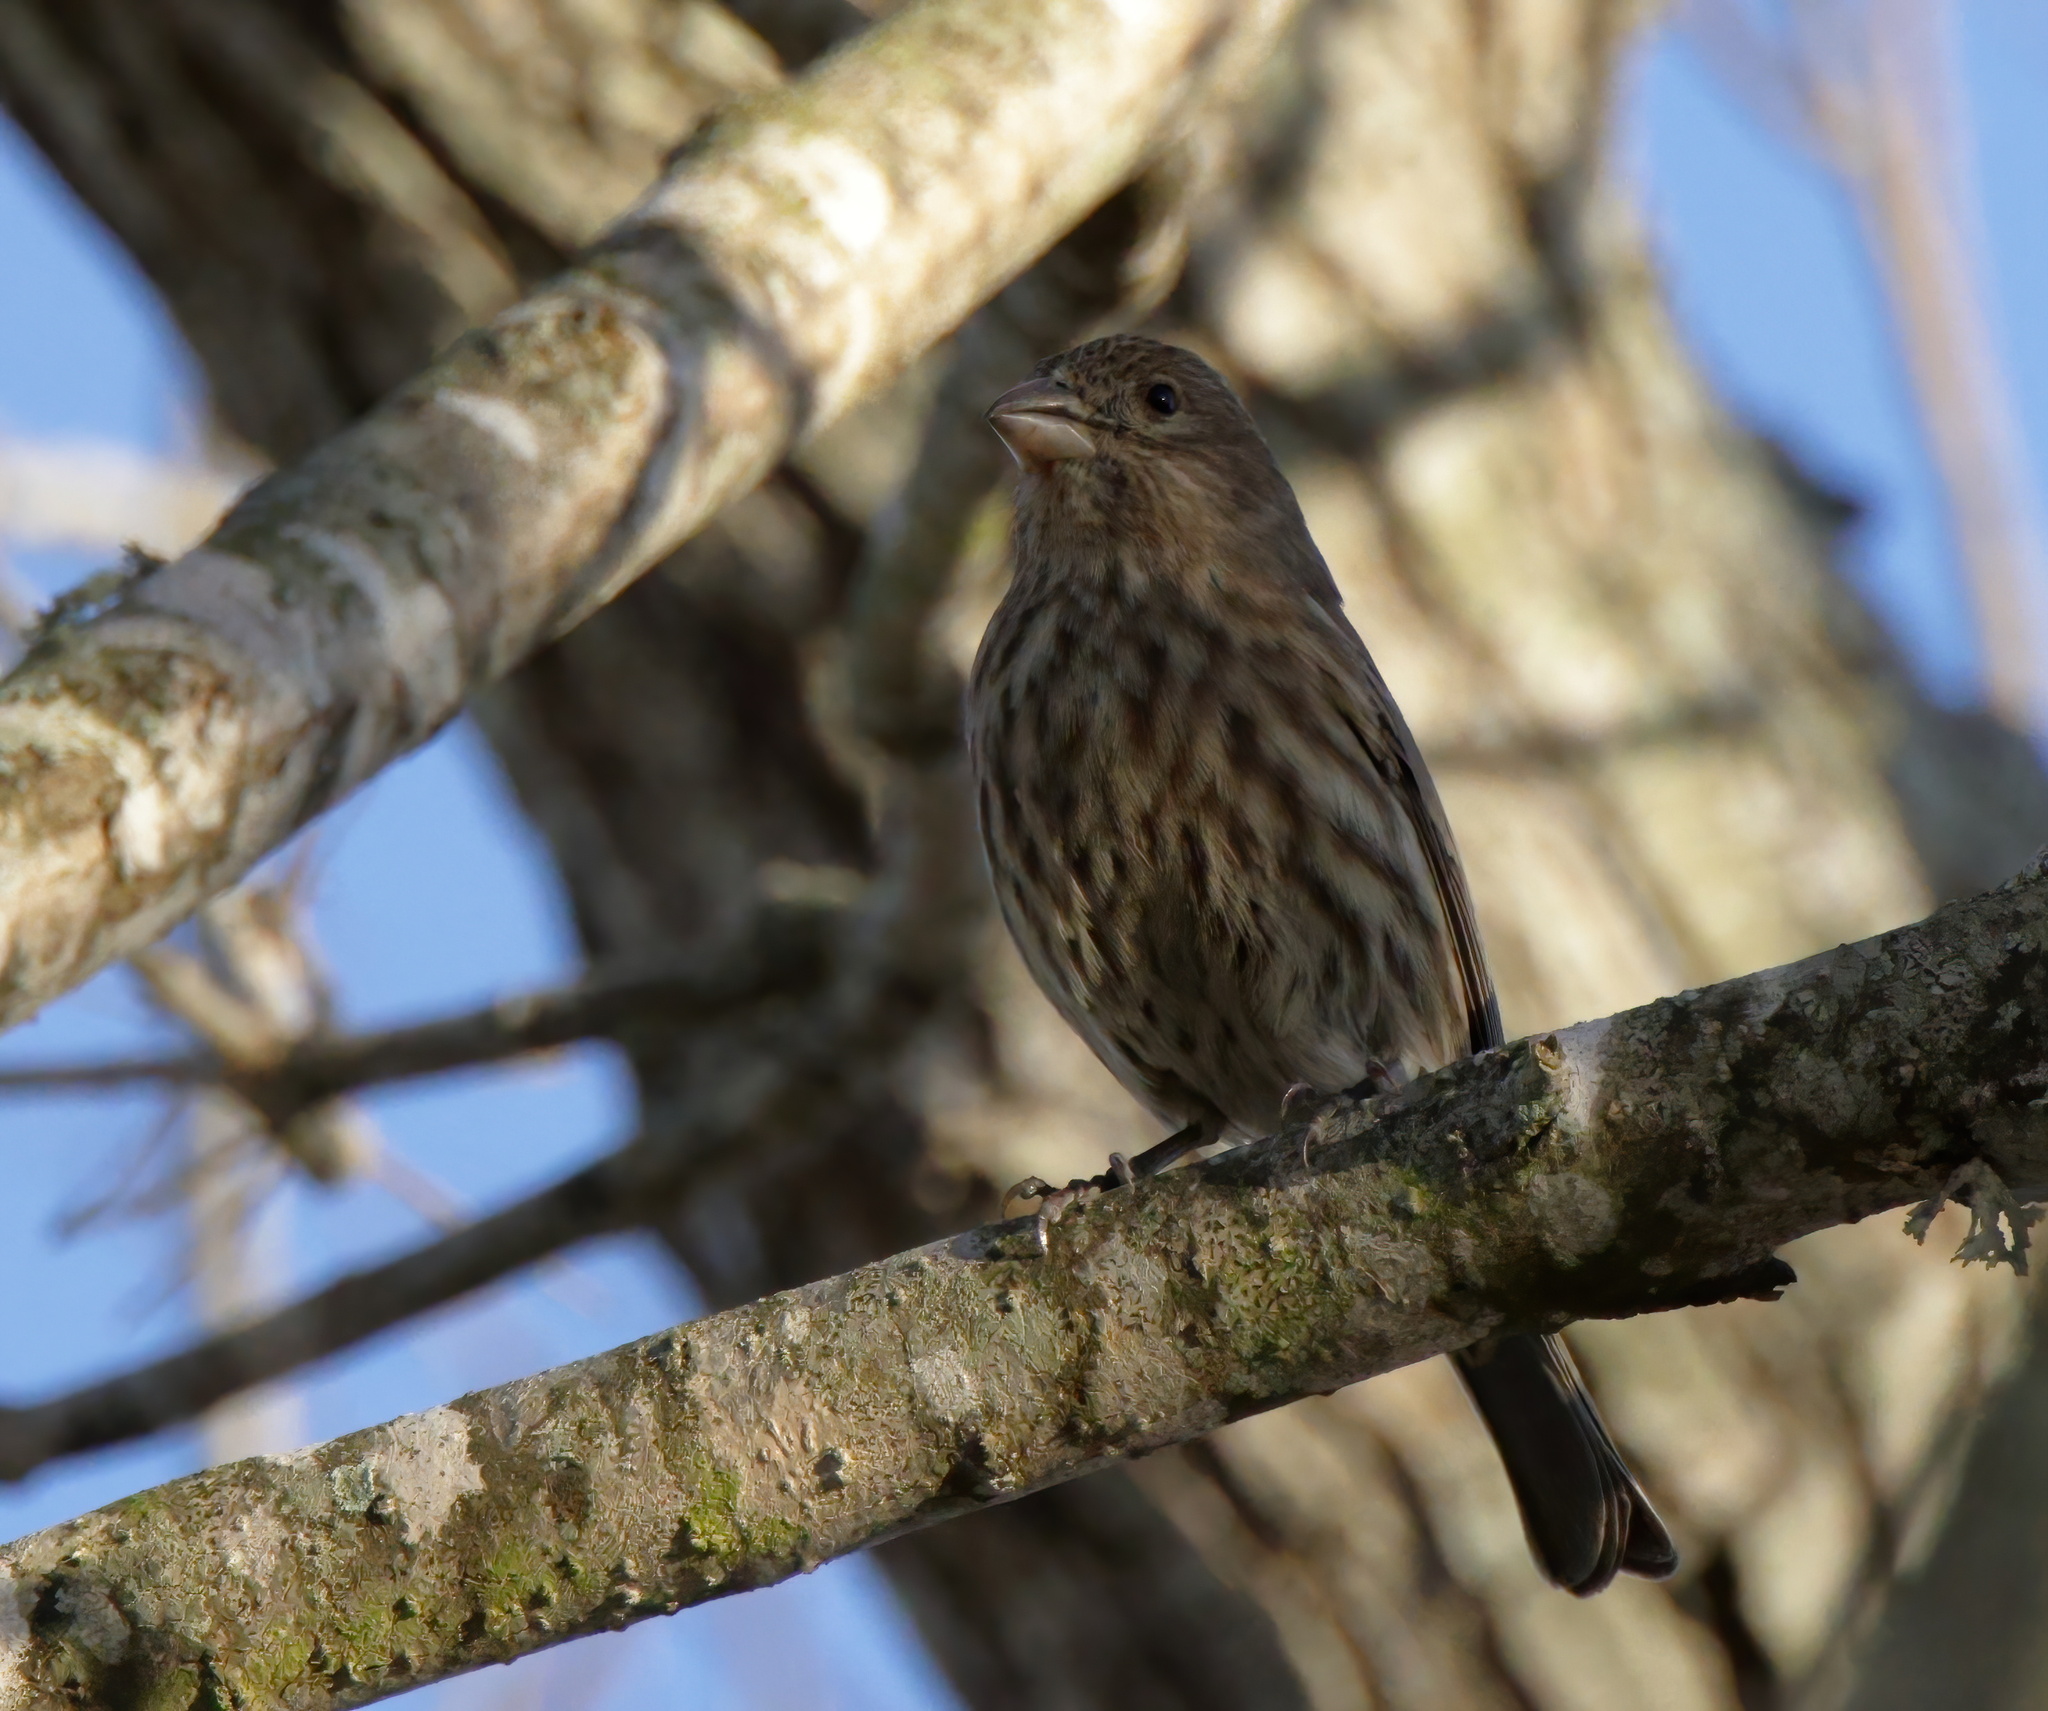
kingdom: Animalia
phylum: Chordata
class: Aves
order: Passeriformes
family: Fringillidae
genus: Haemorhous
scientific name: Haemorhous mexicanus
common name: House finch
